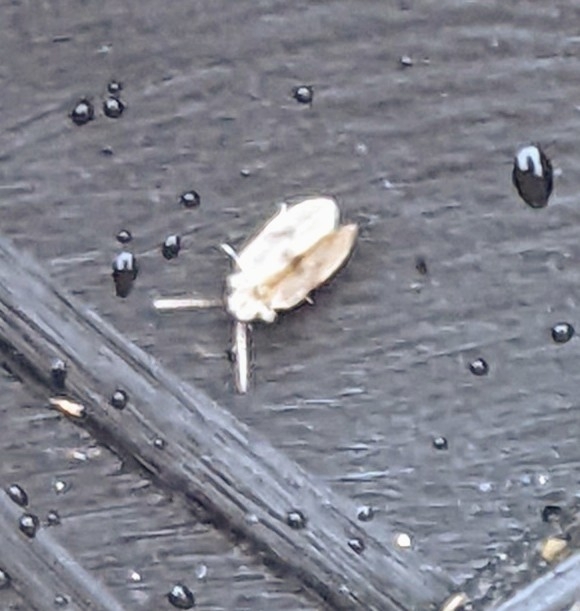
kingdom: Animalia
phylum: Arthropoda
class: Insecta
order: Diptera
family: Psychodidae
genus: Psychoda
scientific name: Psychoda sigma
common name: Moth fly
